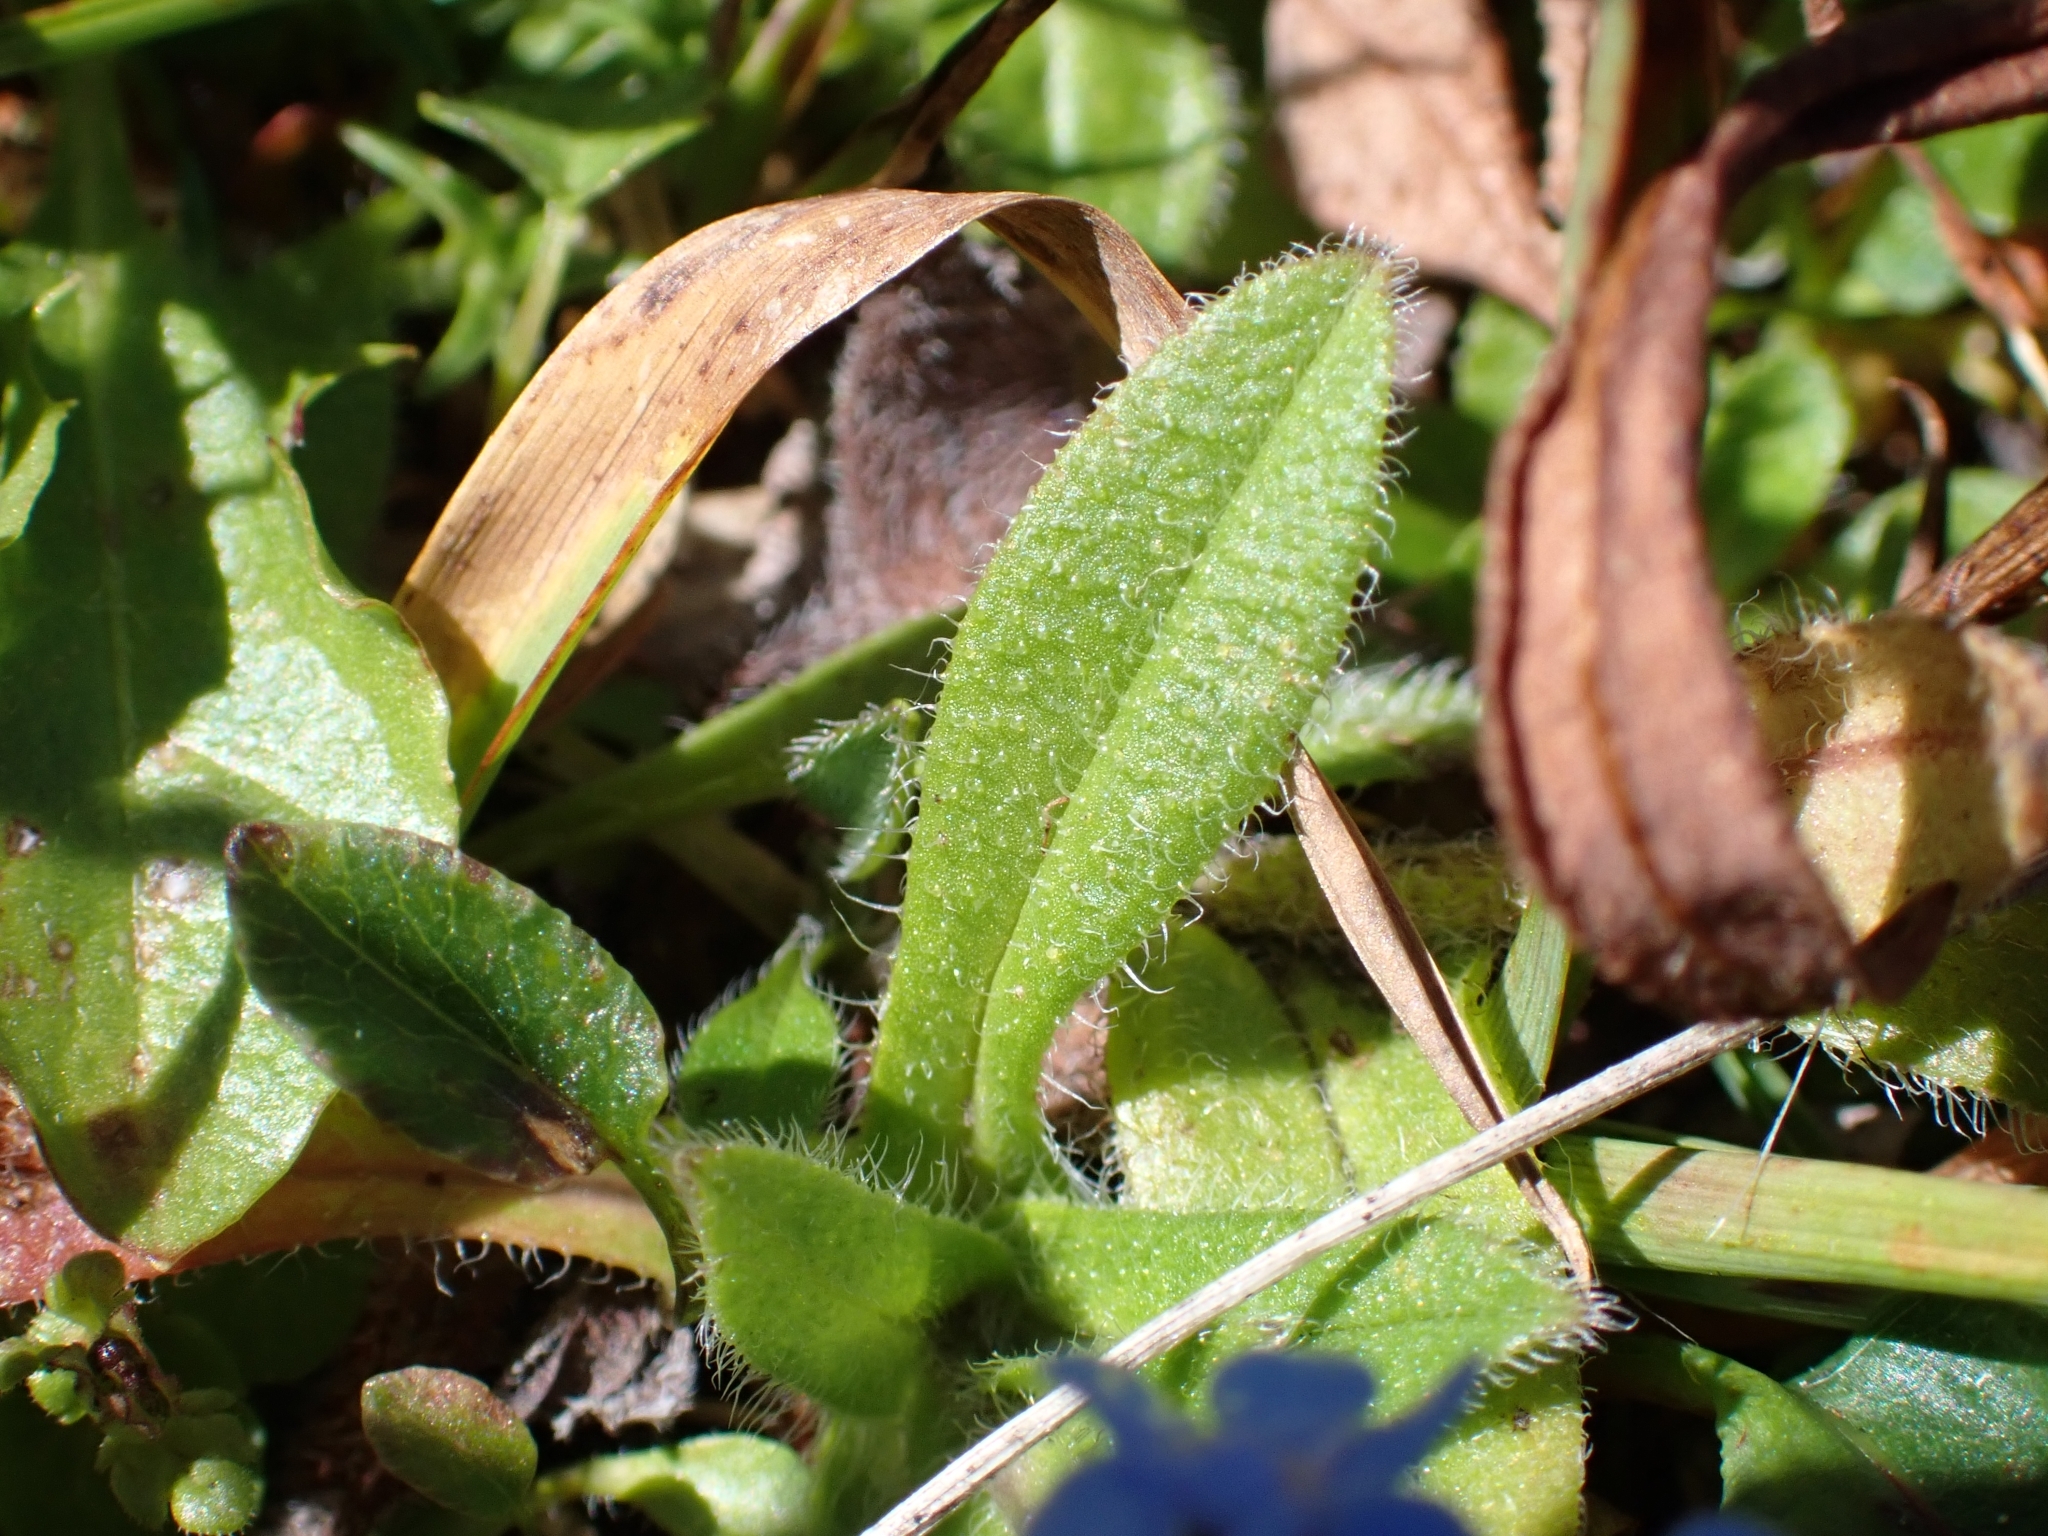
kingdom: Plantae
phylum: Tracheophyta
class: Magnoliopsida
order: Boraginales
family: Boraginaceae
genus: Myosotis
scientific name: Myosotis alpestris
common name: Alpine forget-me-not
